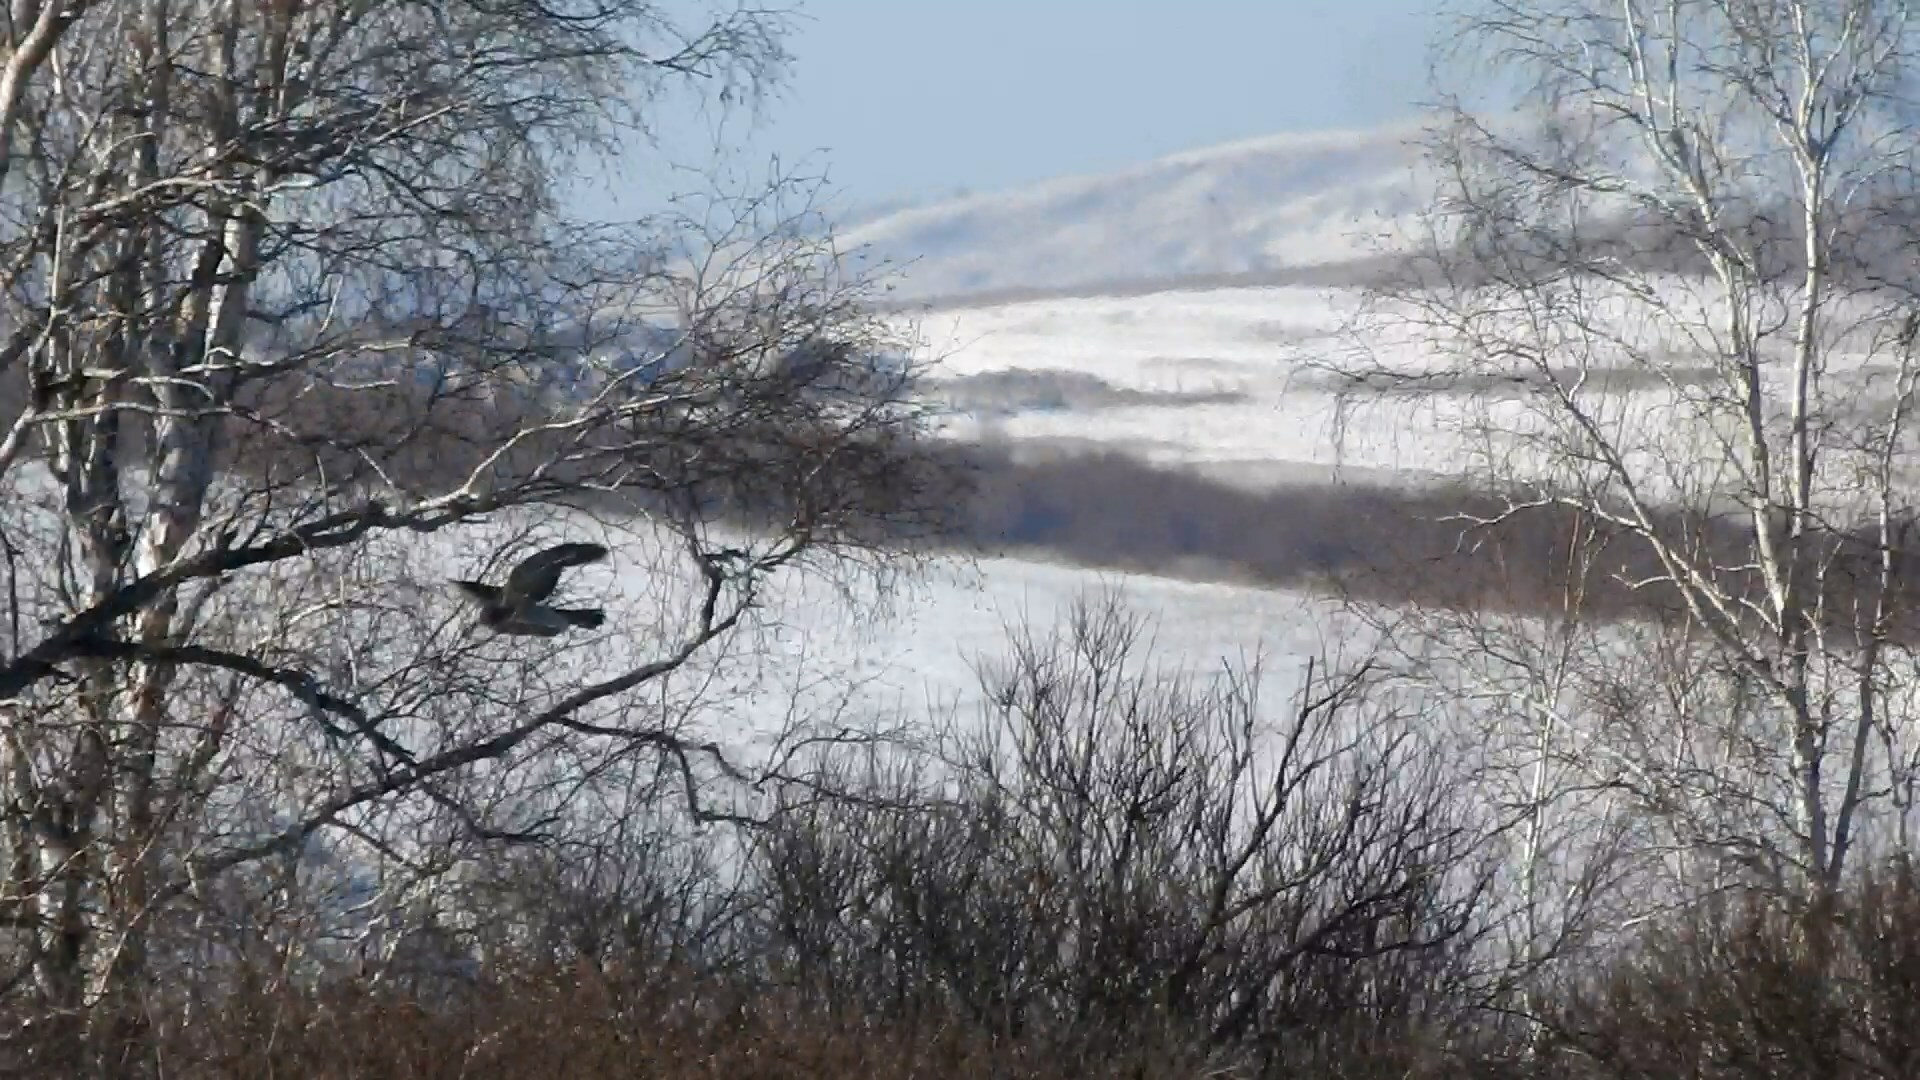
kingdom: Animalia
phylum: Chordata
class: Aves
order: Accipitriformes
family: Accipitridae
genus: Accipiter
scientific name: Accipiter gentilis
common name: Northern goshawk
